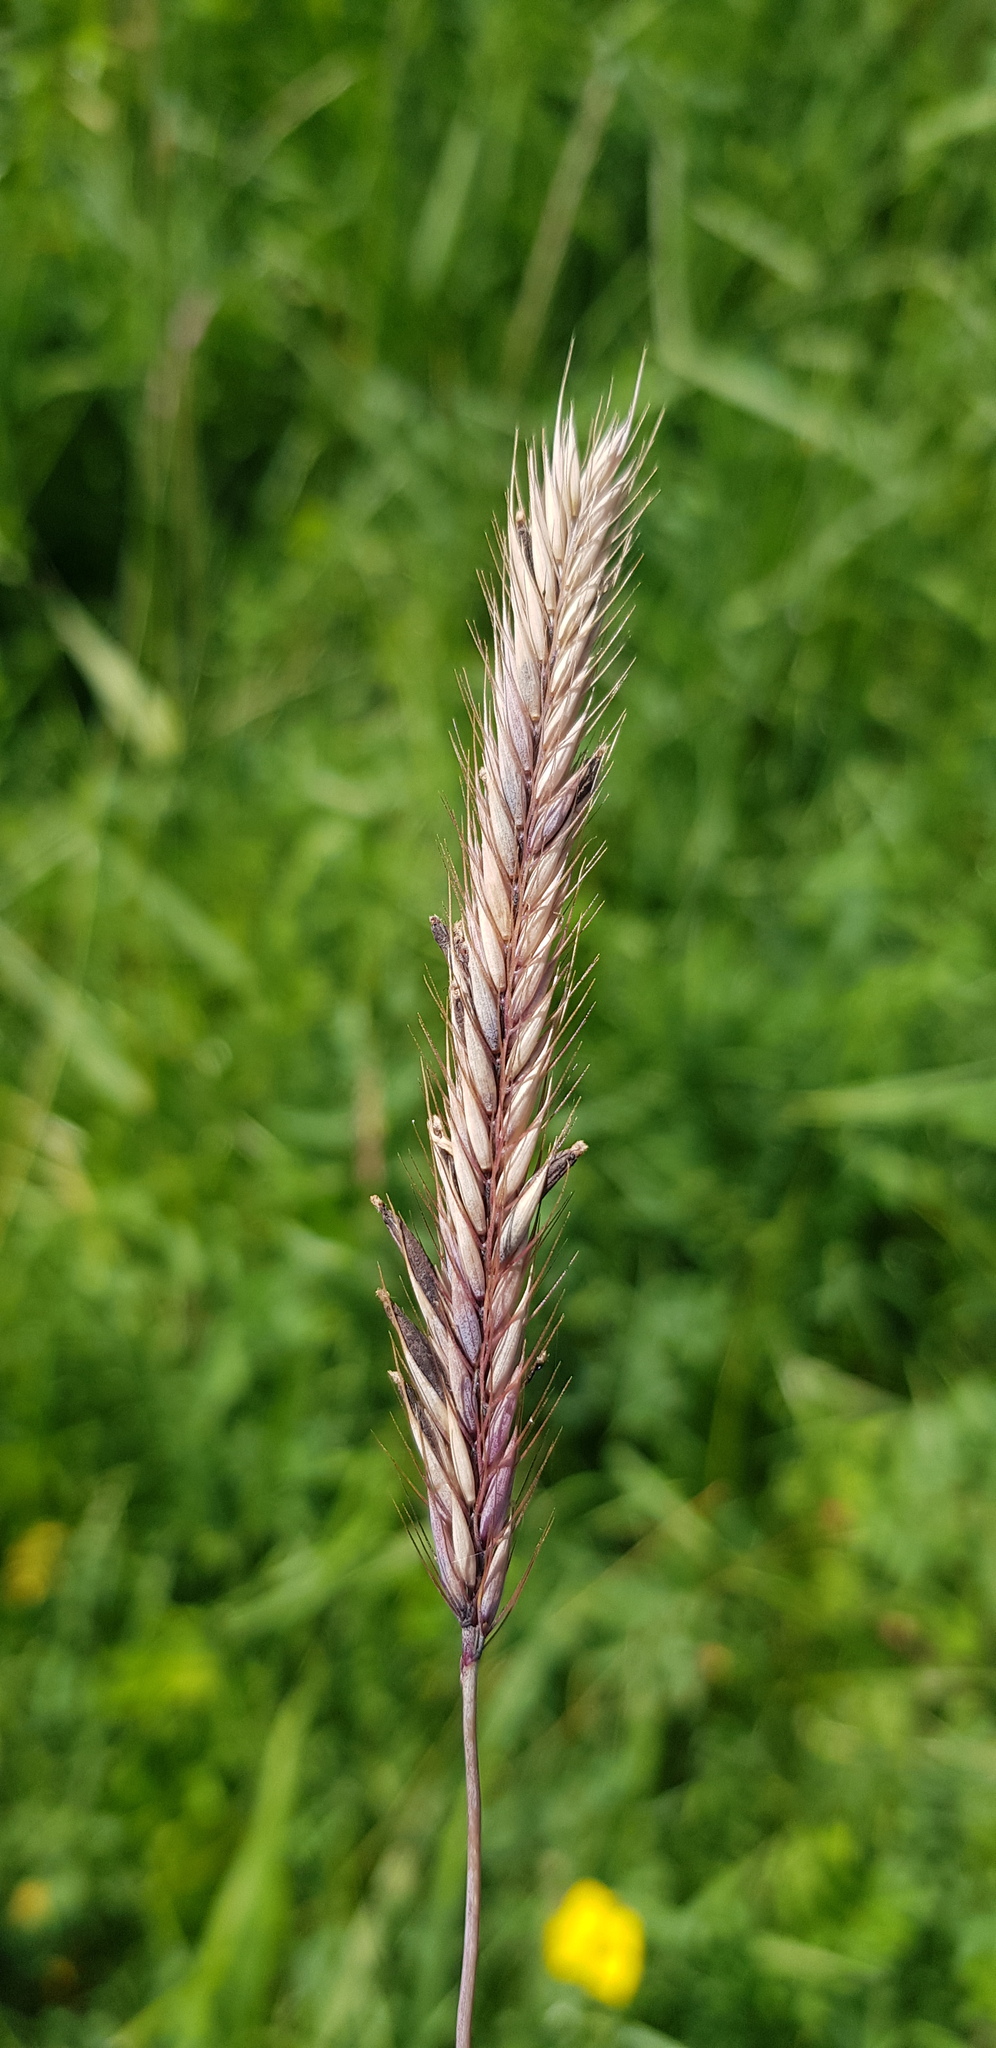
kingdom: Plantae
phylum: Tracheophyta
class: Liliopsida
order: Poales
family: Poaceae
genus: Hordeum
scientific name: Hordeum brevisubulatum
